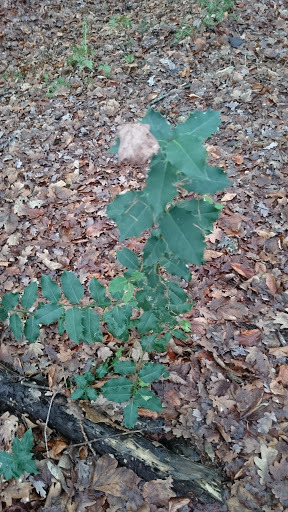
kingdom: Plantae
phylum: Tracheophyta
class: Magnoliopsida
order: Aquifoliales
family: Aquifoliaceae
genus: Ilex
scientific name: Ilex aquifolium
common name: English holly
